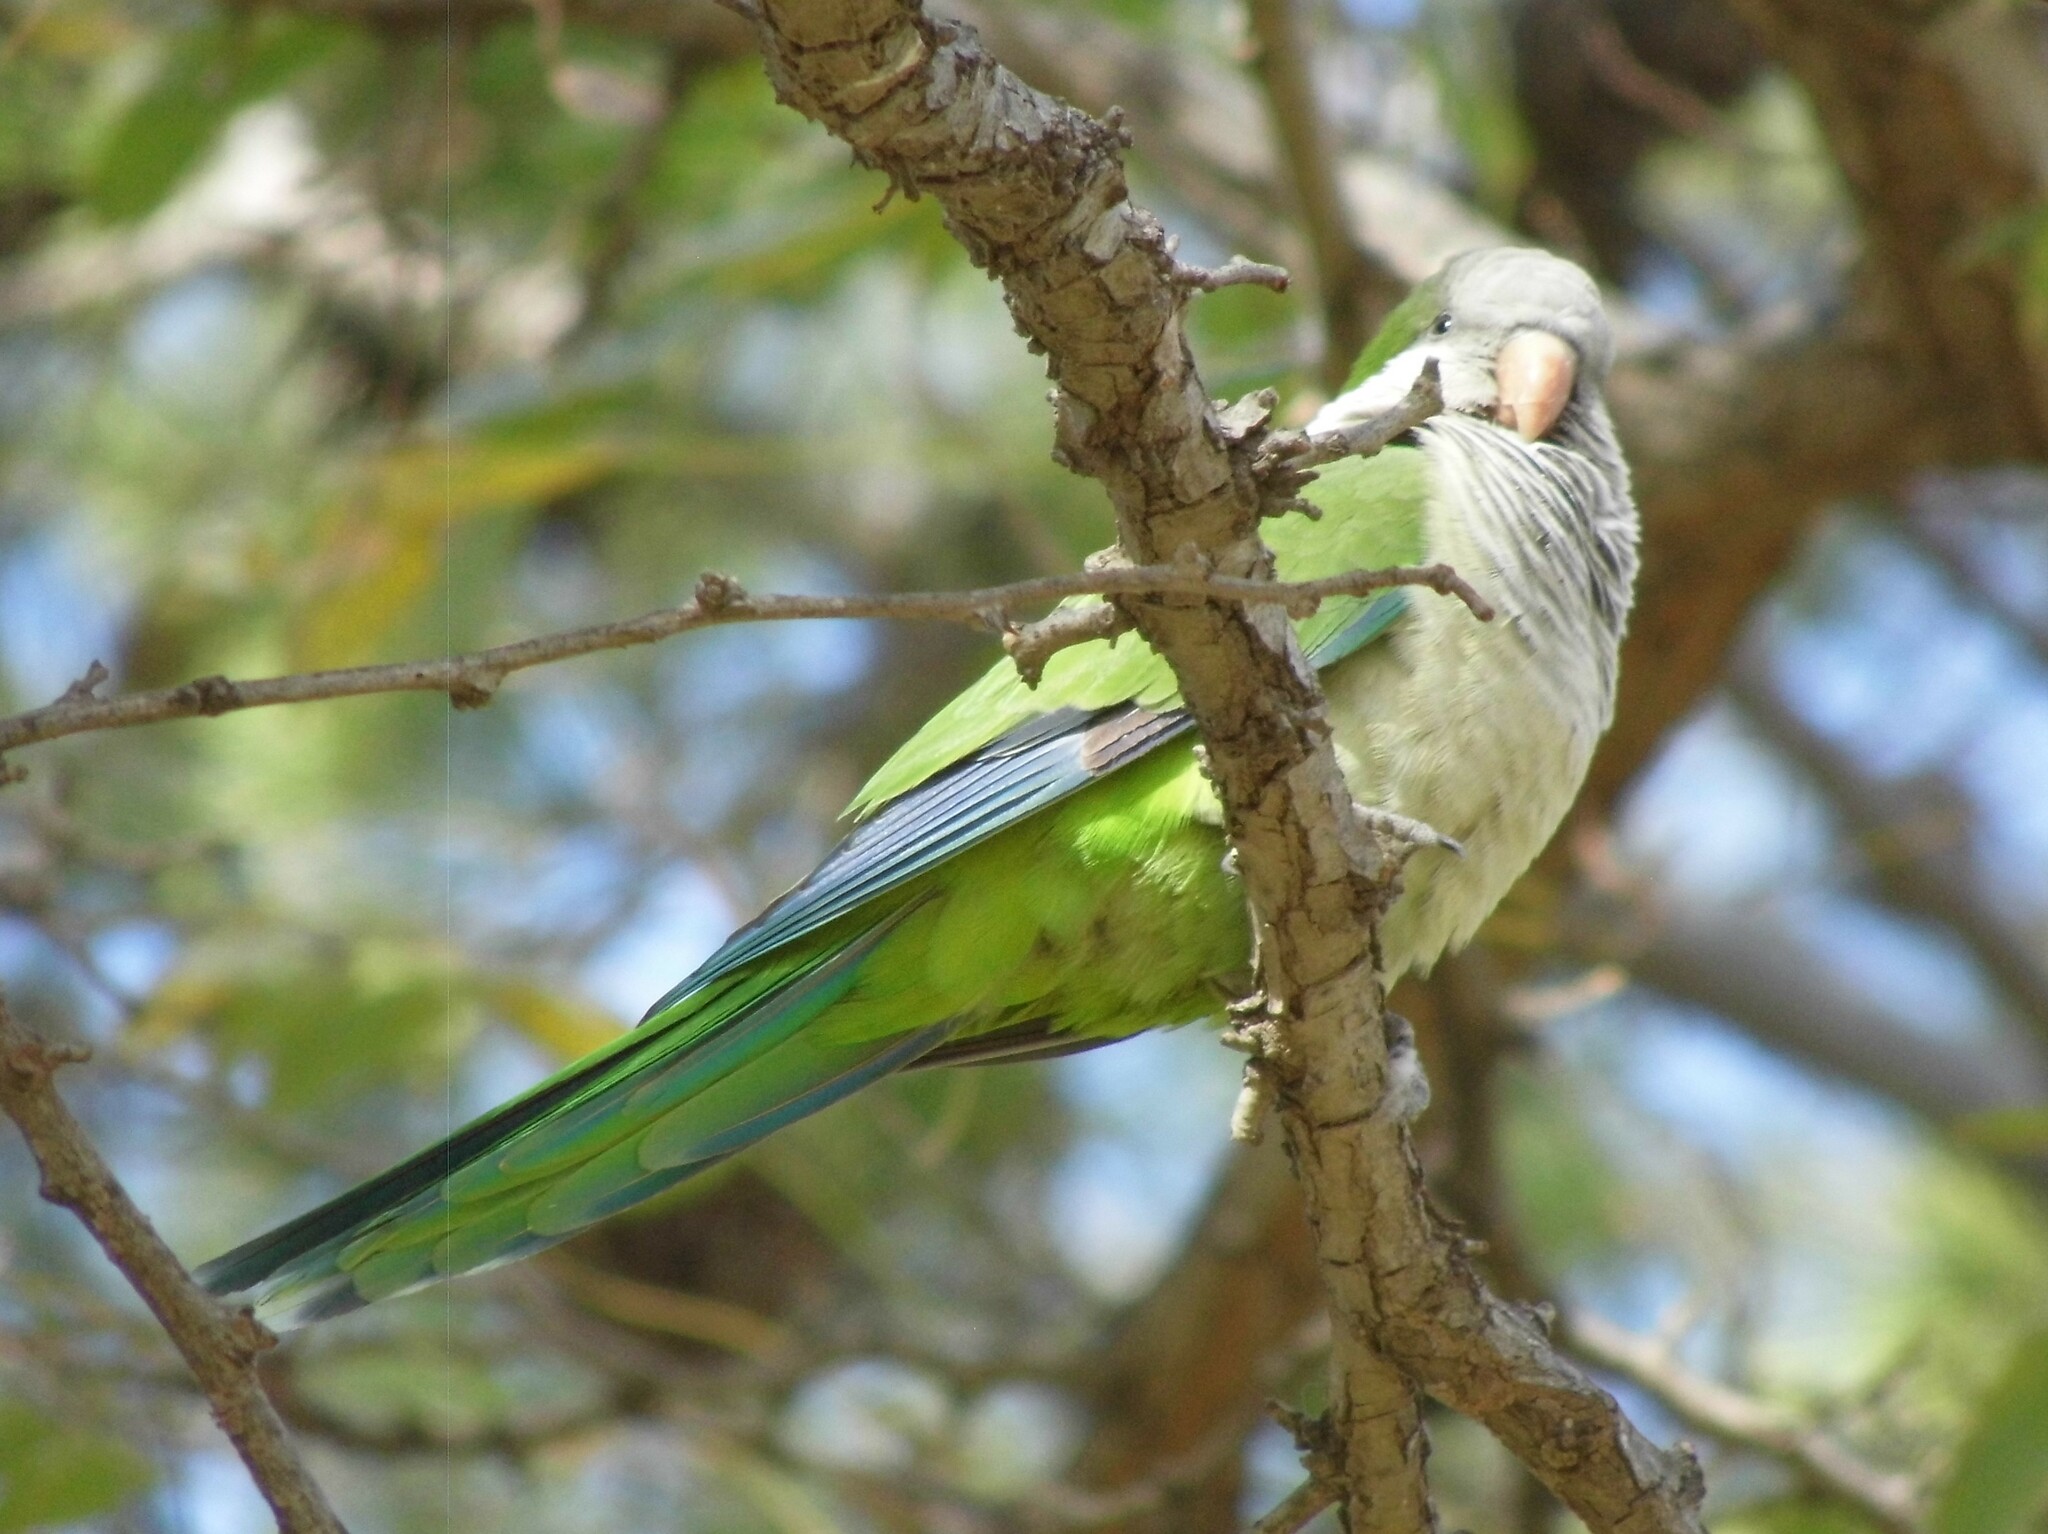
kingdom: Animalia
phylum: Chordata
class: Aves
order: Psittaciformes
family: Psittacidae
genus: Myiopsitta
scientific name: Myiopsitta monachus
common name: Monk parakeet
